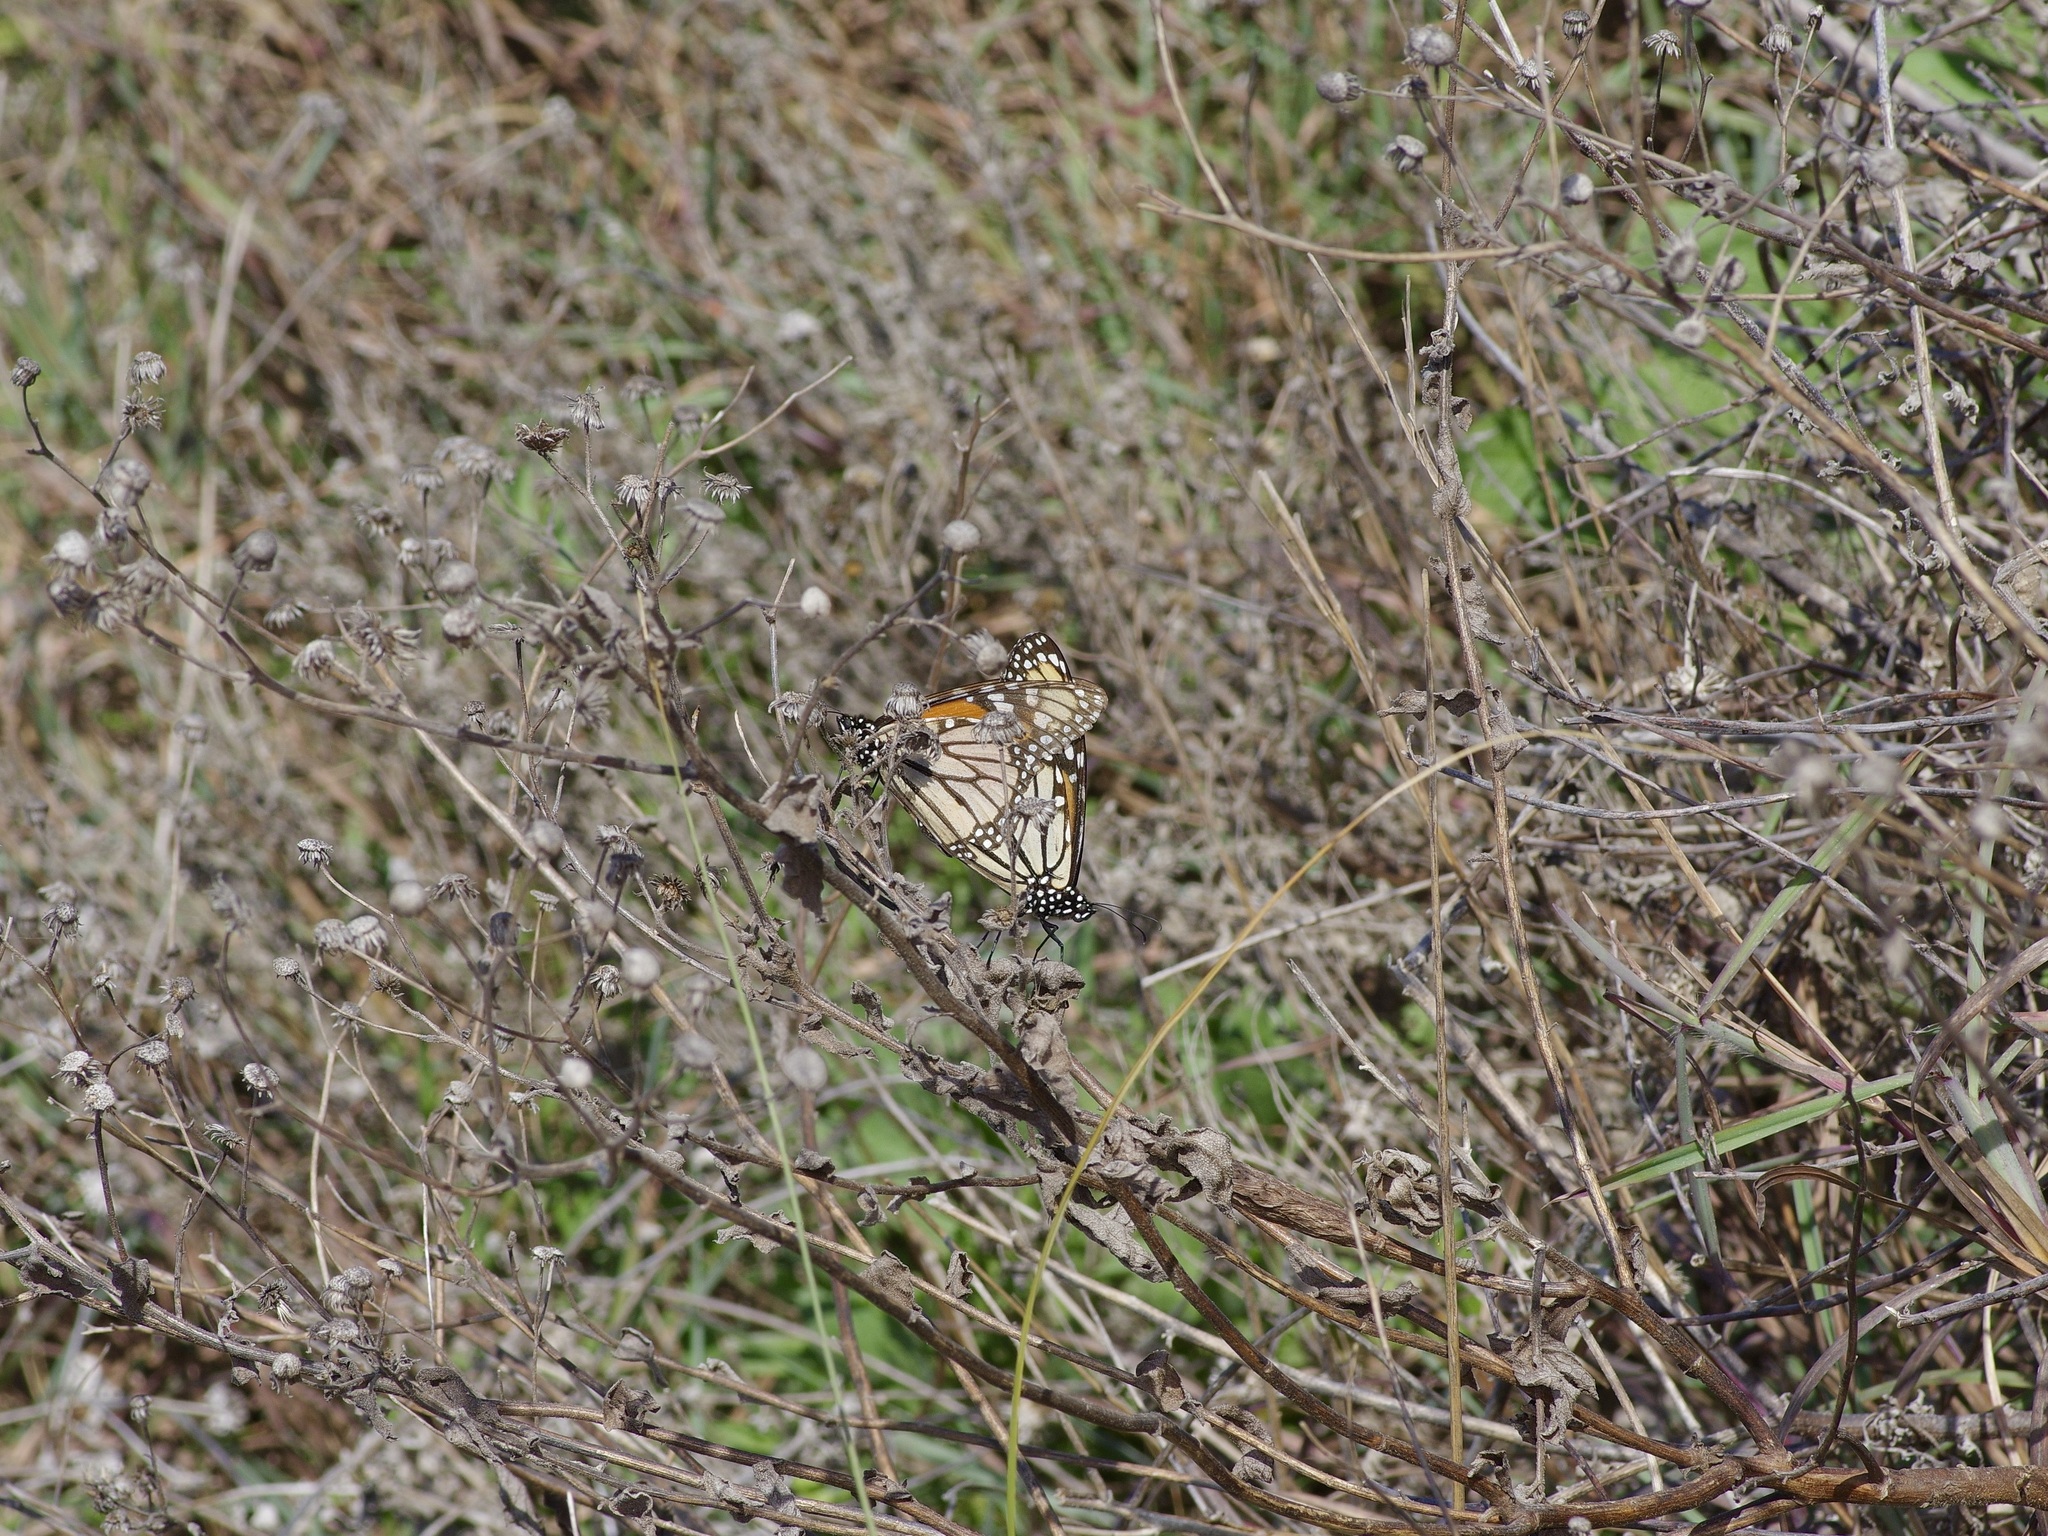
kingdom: Animalia
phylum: Arthropoda
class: Insecta
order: Lepidoptera
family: Nymphalidae
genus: Danaus
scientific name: Danaus plexippus
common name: Monarch
